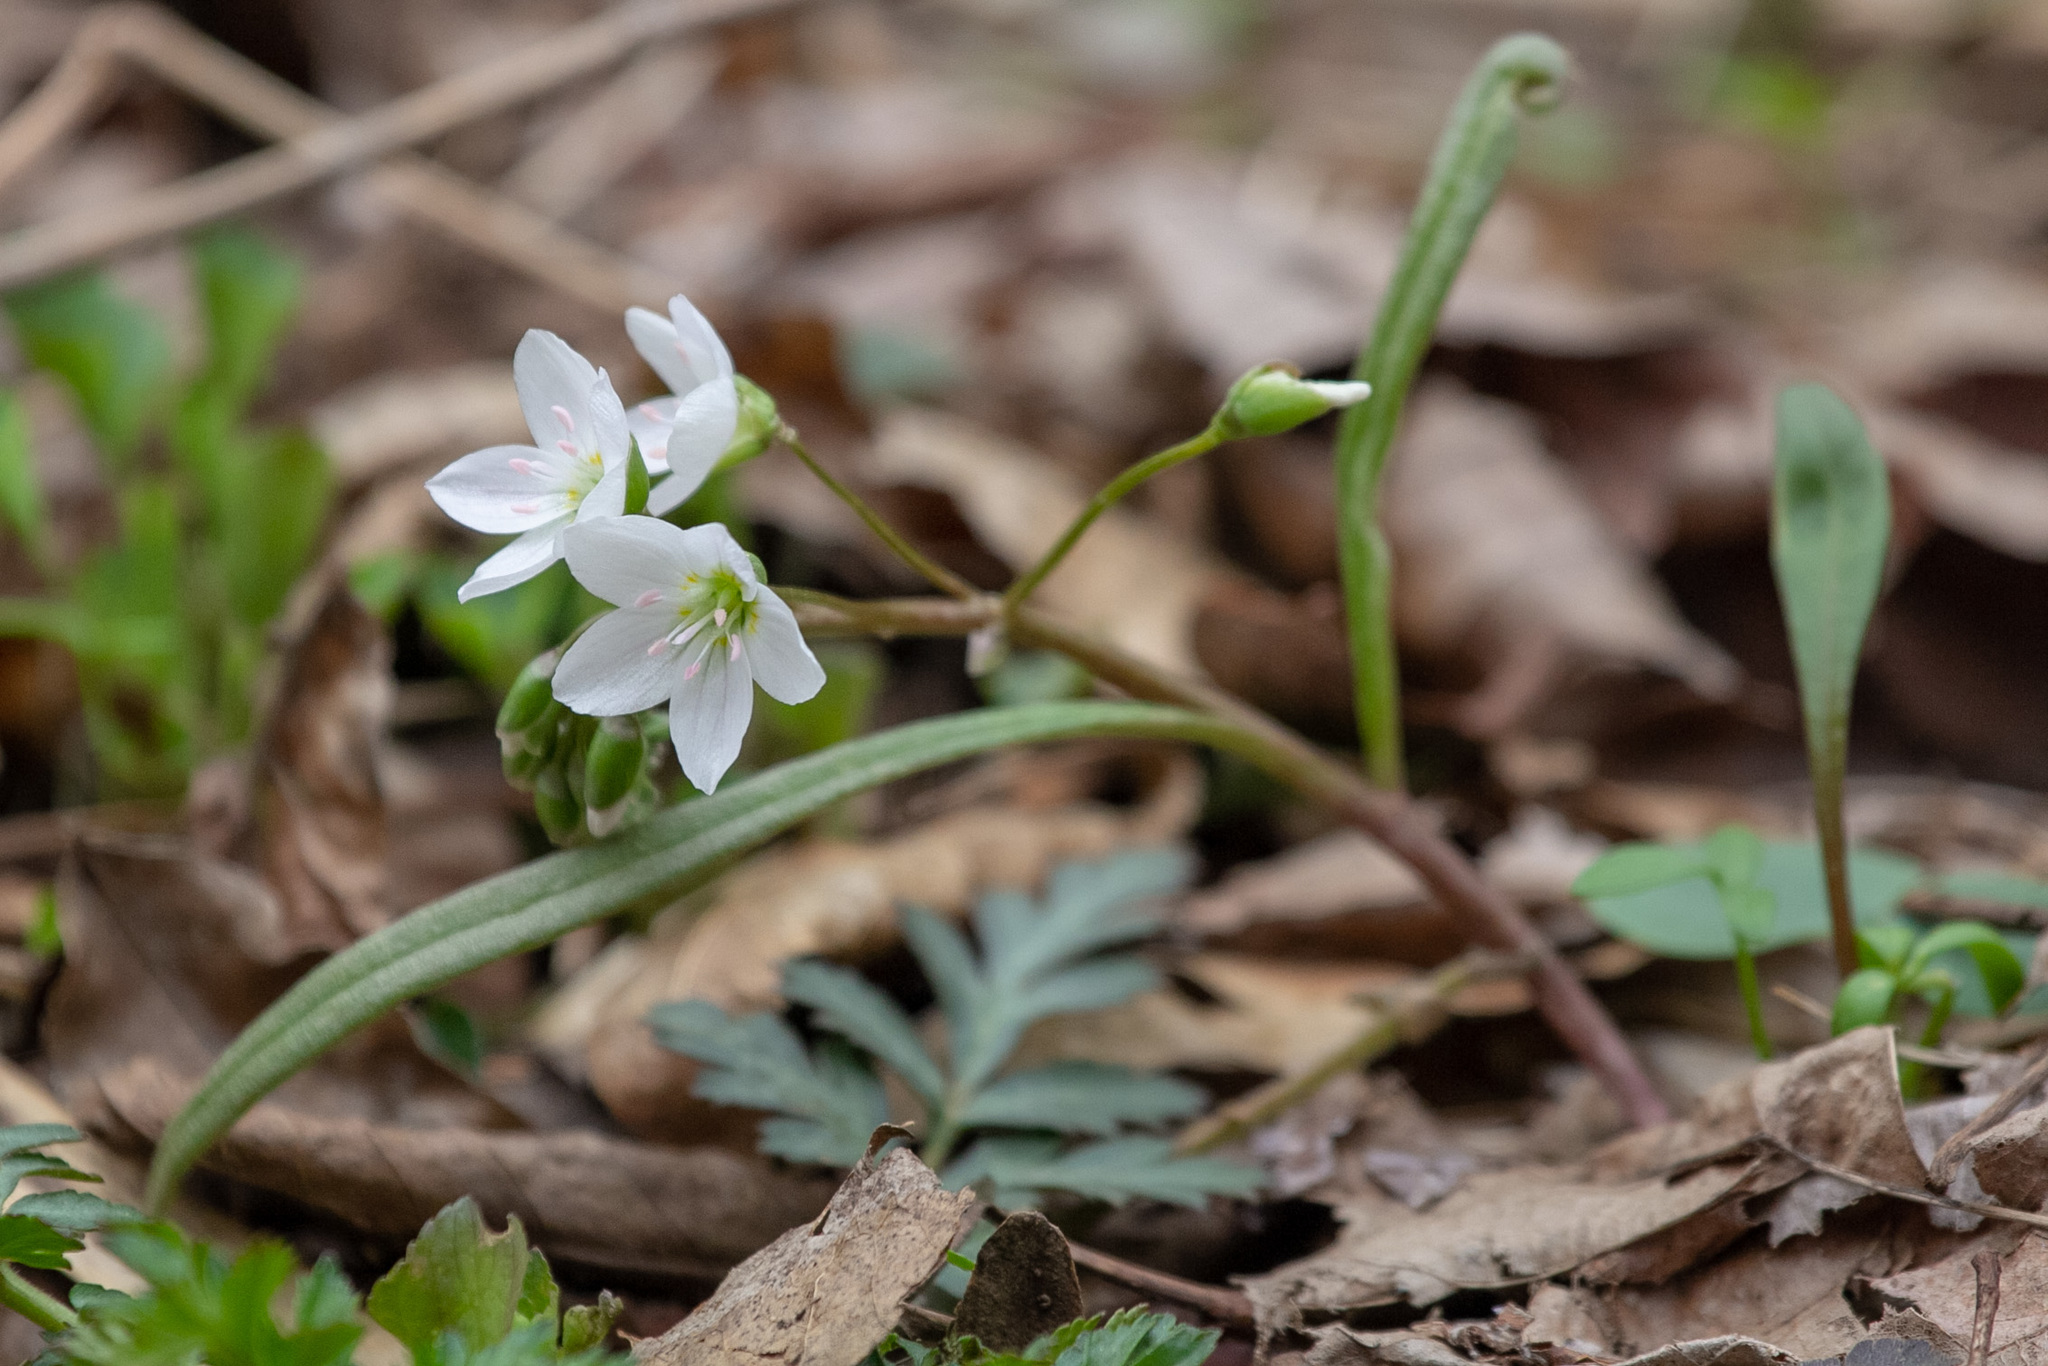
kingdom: Plantae
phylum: Tracheophyta
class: Magnoliopsida
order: Caryophyllales
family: Montiaceae
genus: Claytonia
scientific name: Claytonia virginica
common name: Virginia springbeauty
